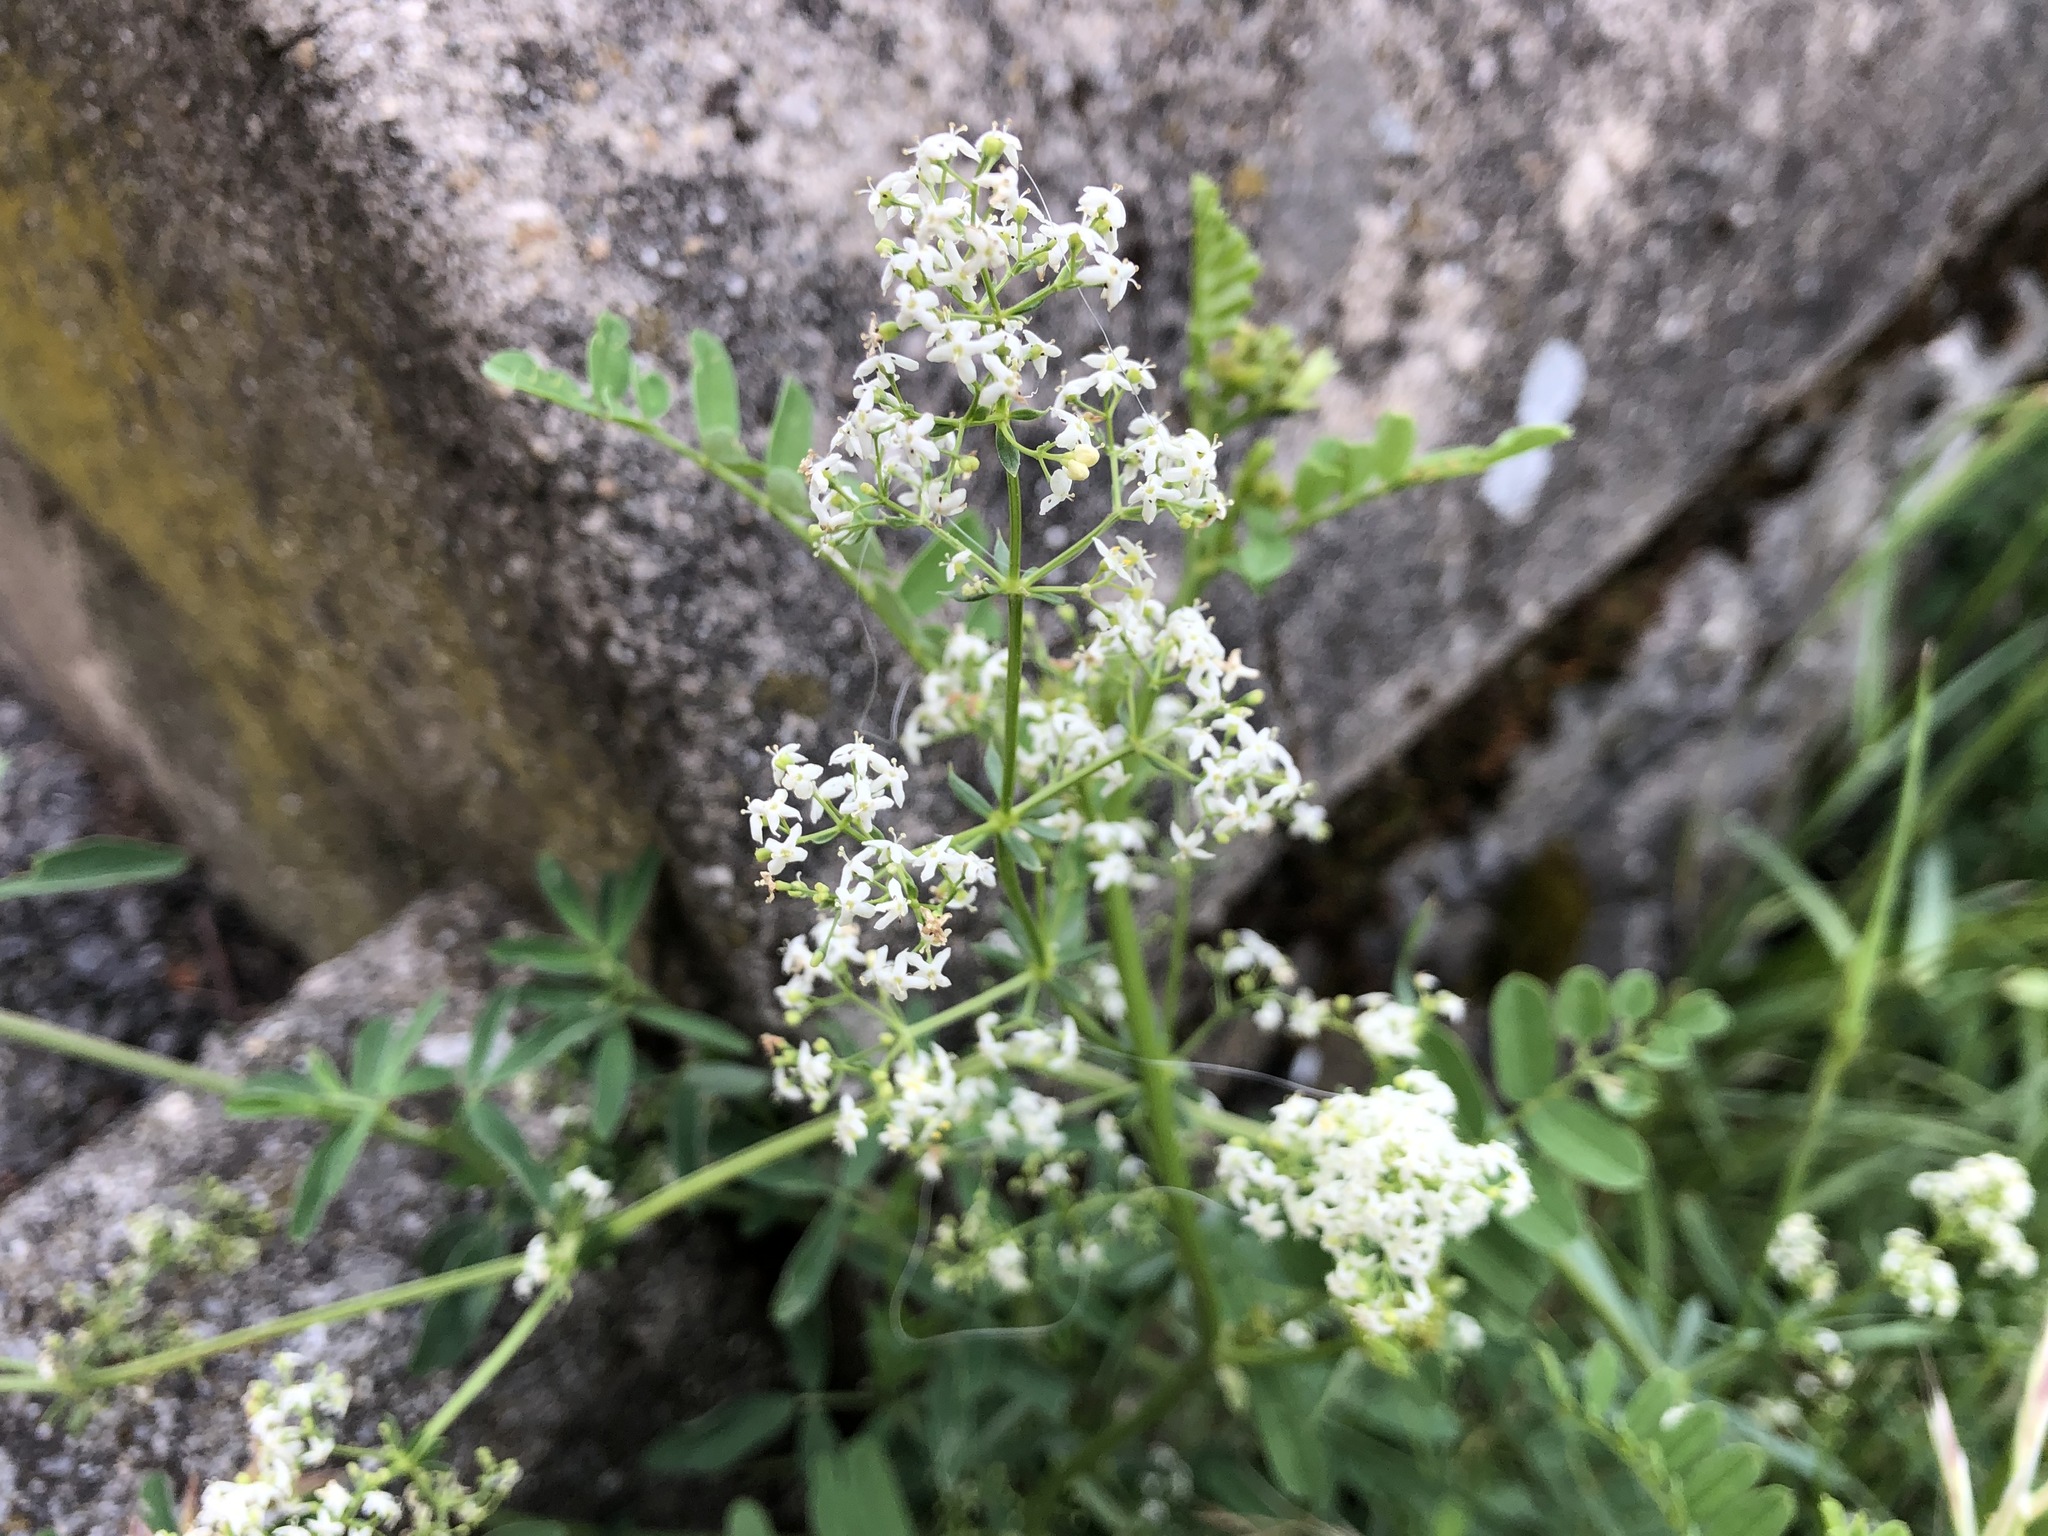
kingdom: Plantae
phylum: Tracheophyta
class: Magnoliopsida
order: Gentianales
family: Rubiaceae
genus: Galium
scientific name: Galium mollugo
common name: Hedge bedstraw
